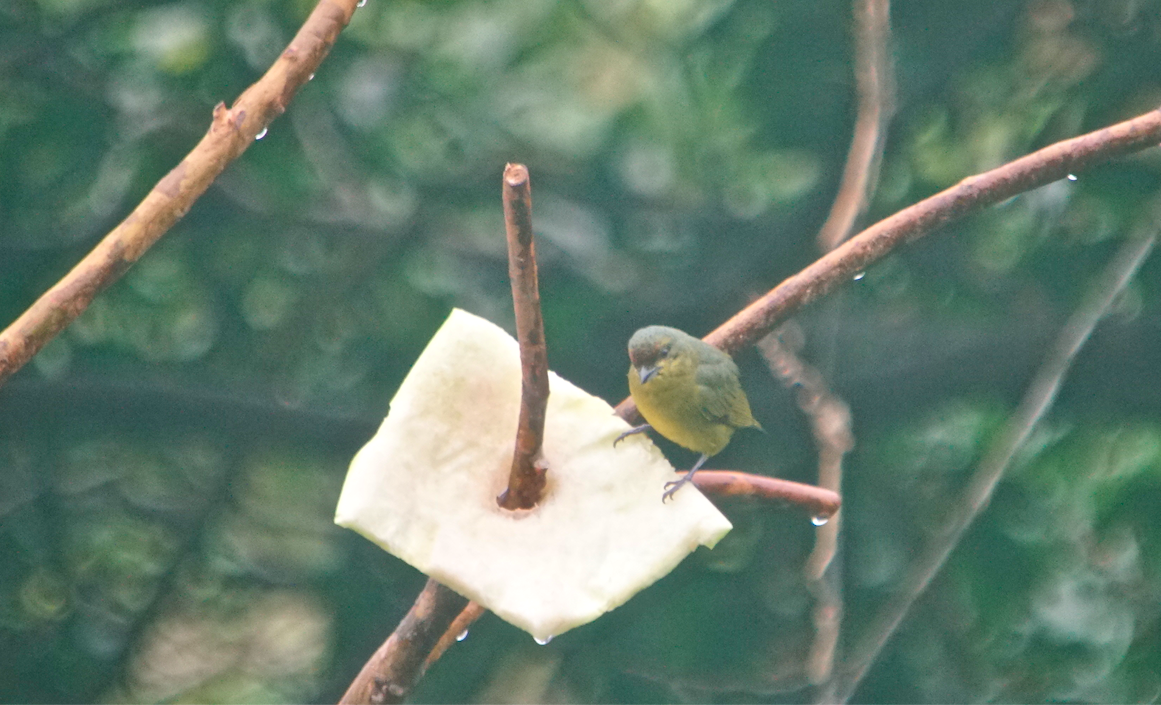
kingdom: Animalia
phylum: Chordata
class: Aves
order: Passeriformes
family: Fringillidae
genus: Euphonia
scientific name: Euphonia gouldi
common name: Olive-backed euphonia
